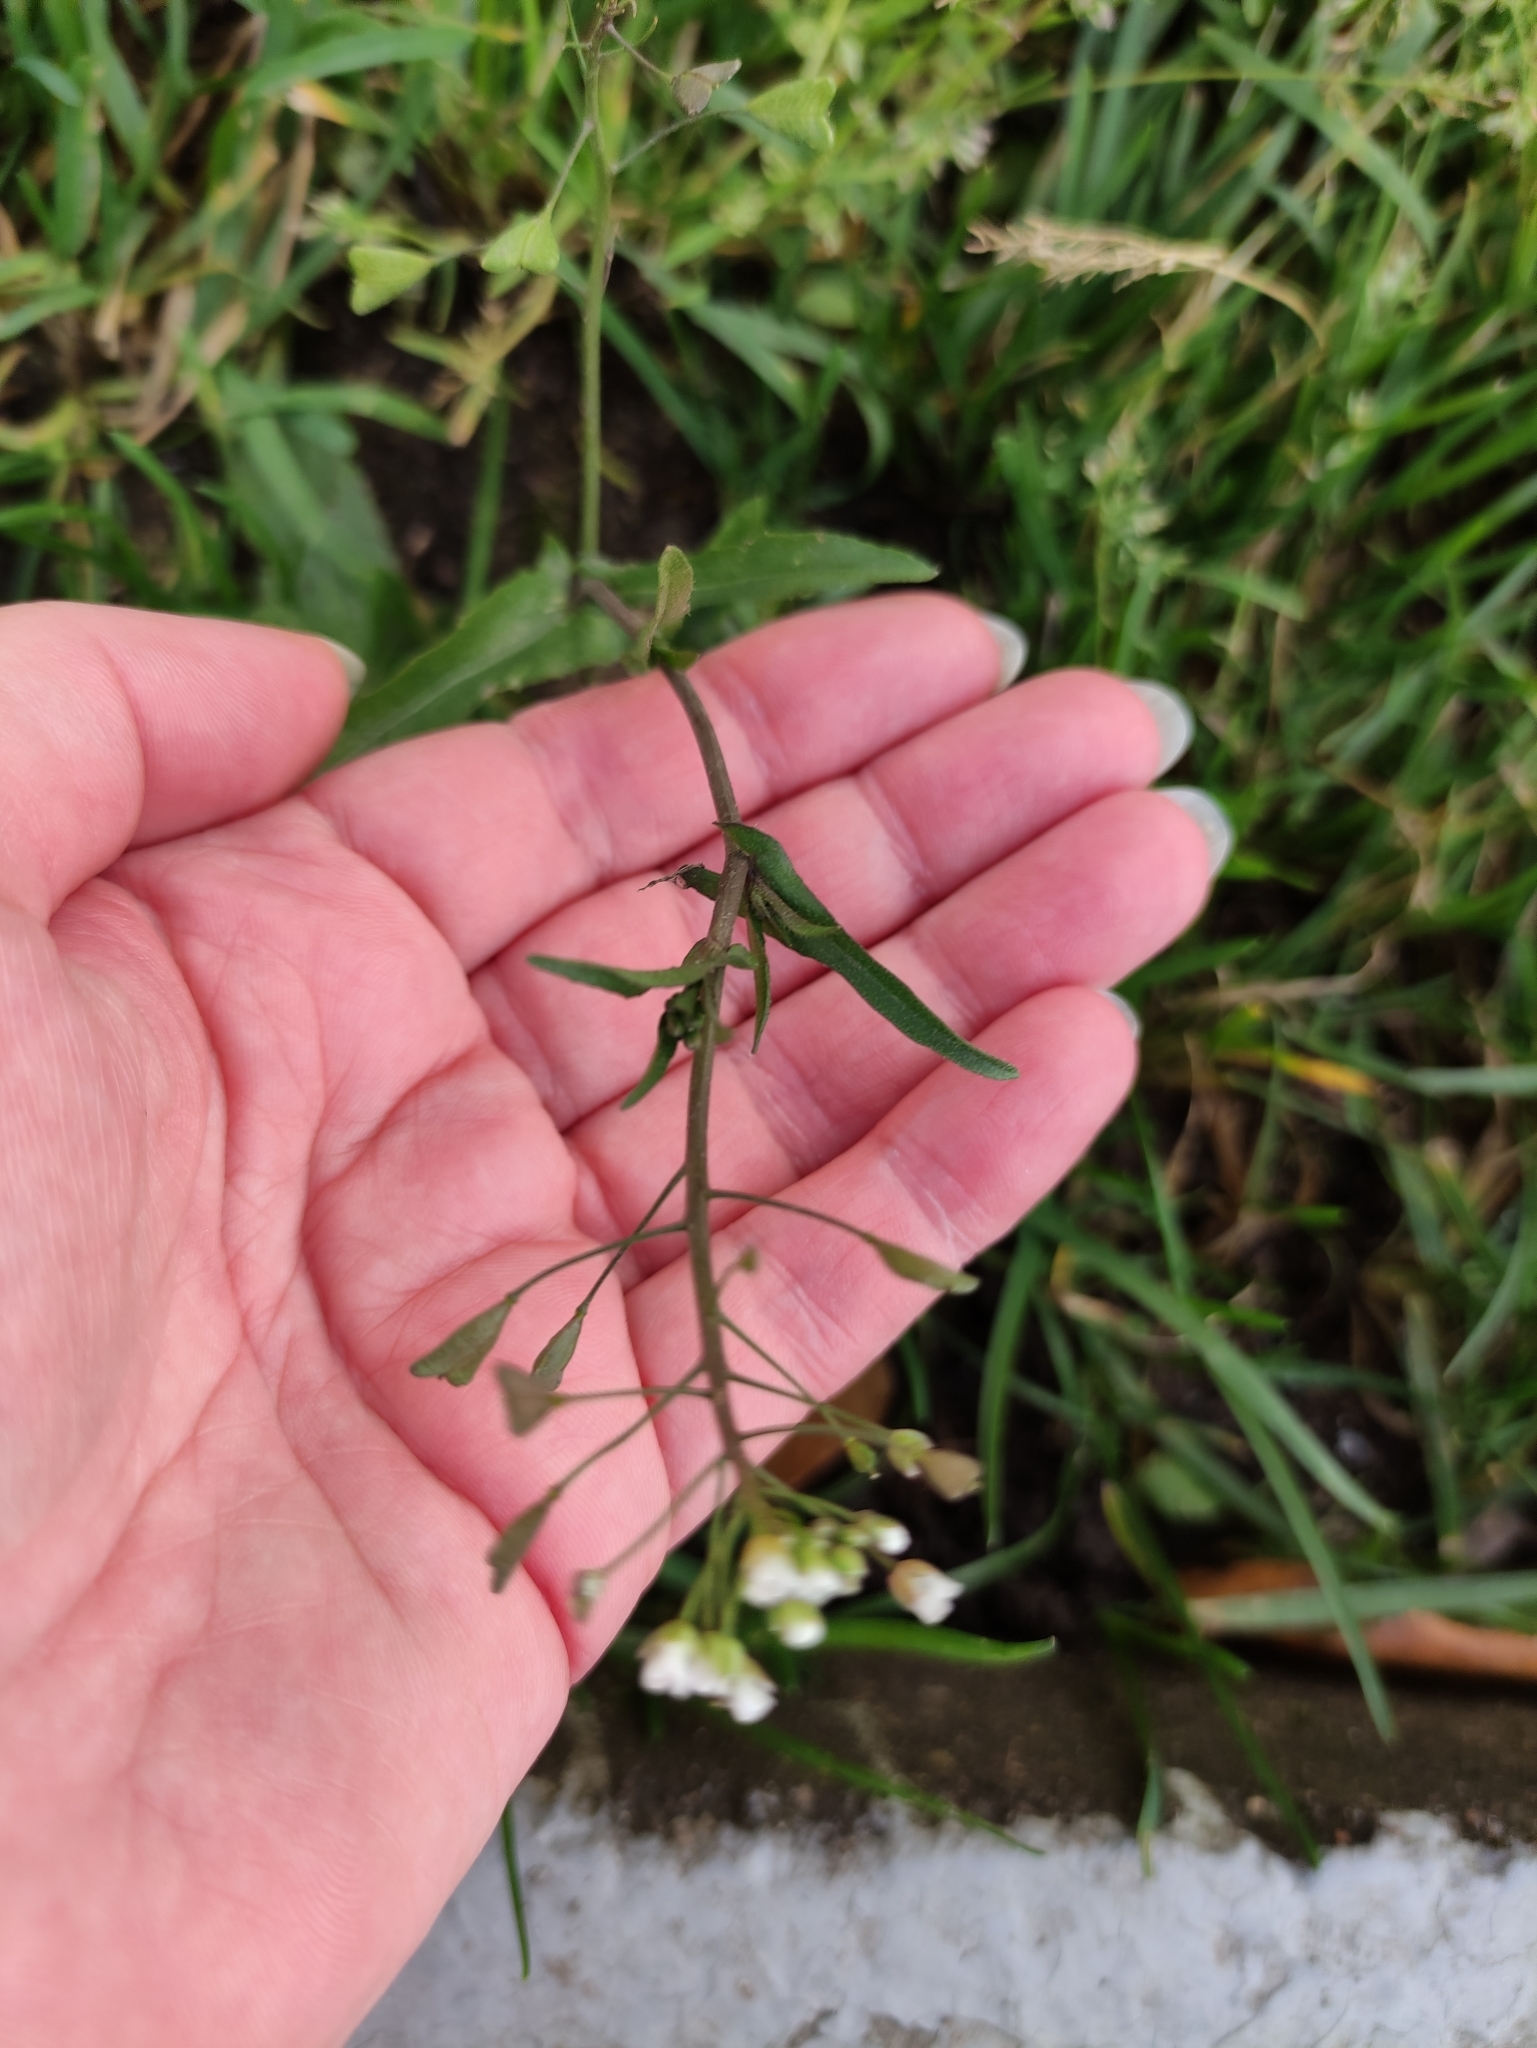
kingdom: Plantae
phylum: Tracheophyta
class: Magnoliopsida
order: Brassicales
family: Brassicaceae
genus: Capsella
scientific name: Capsella bursa-pastoris
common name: Shepherd's purse
